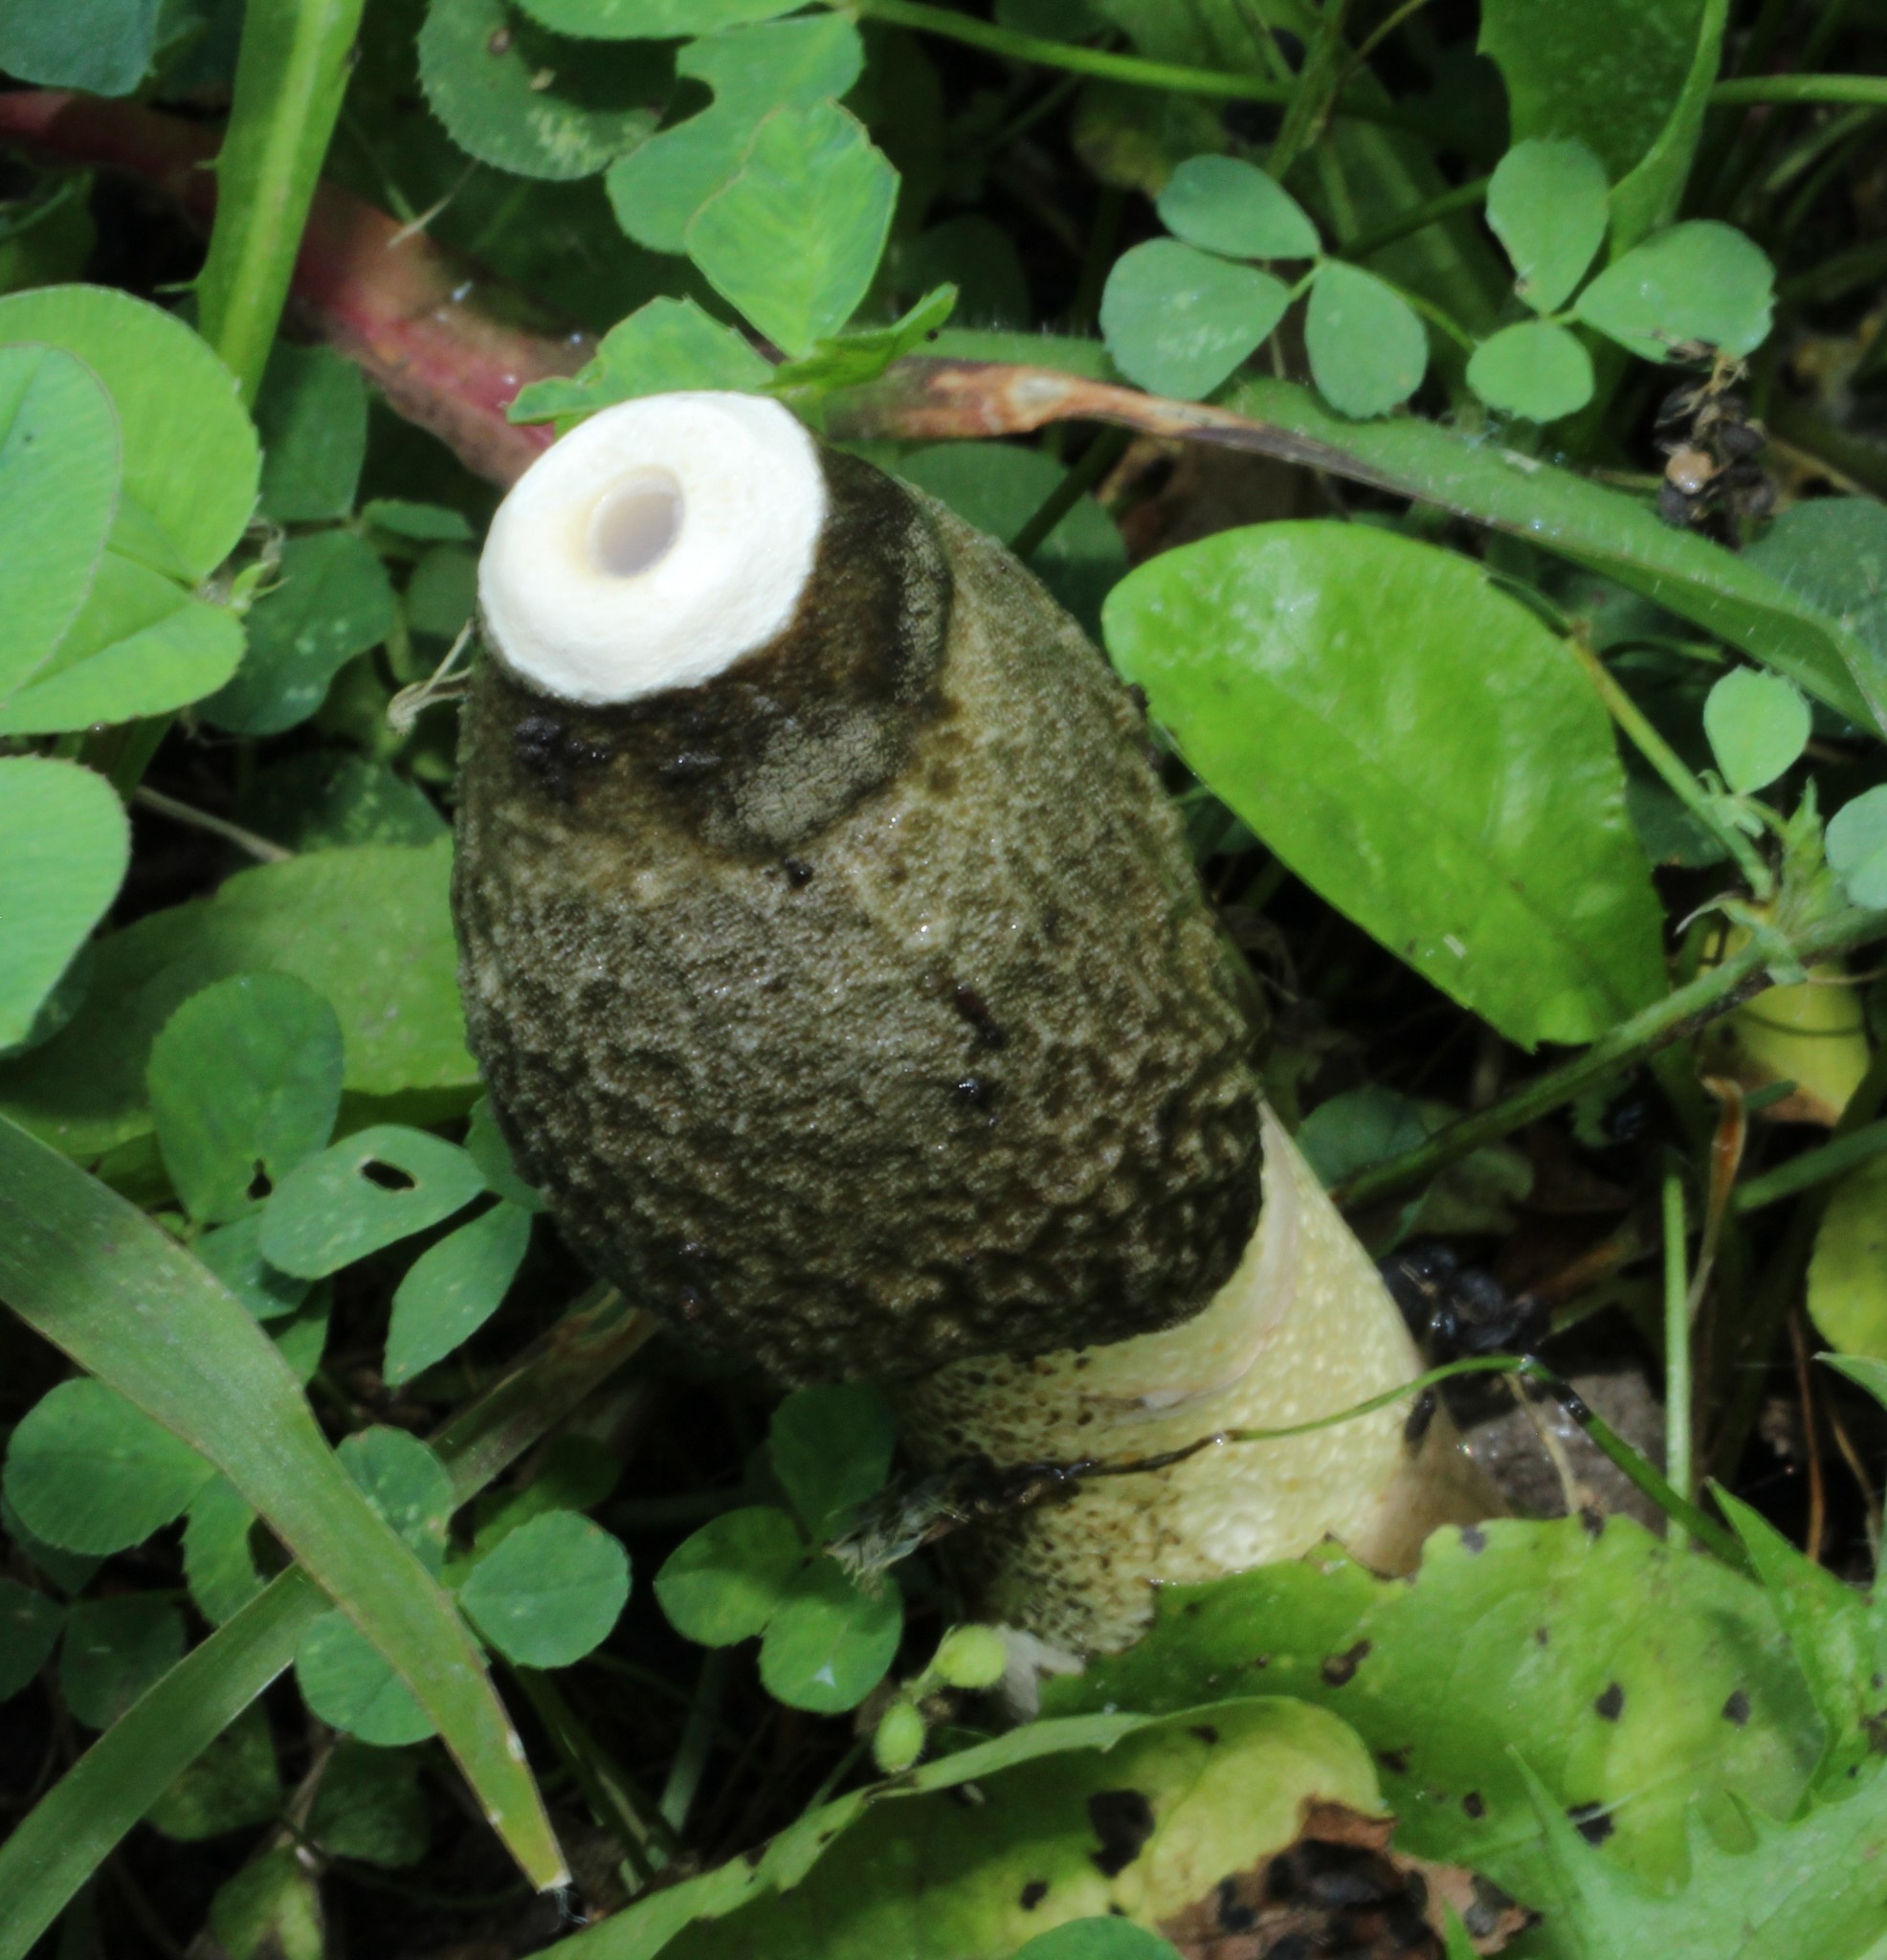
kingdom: Fungi
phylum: Basidiomycota
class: Agaricomycetes
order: Phallales
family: Phallaceae
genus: Phallus
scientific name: Phallus ravenelii
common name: Ravenel's stinkhorn
